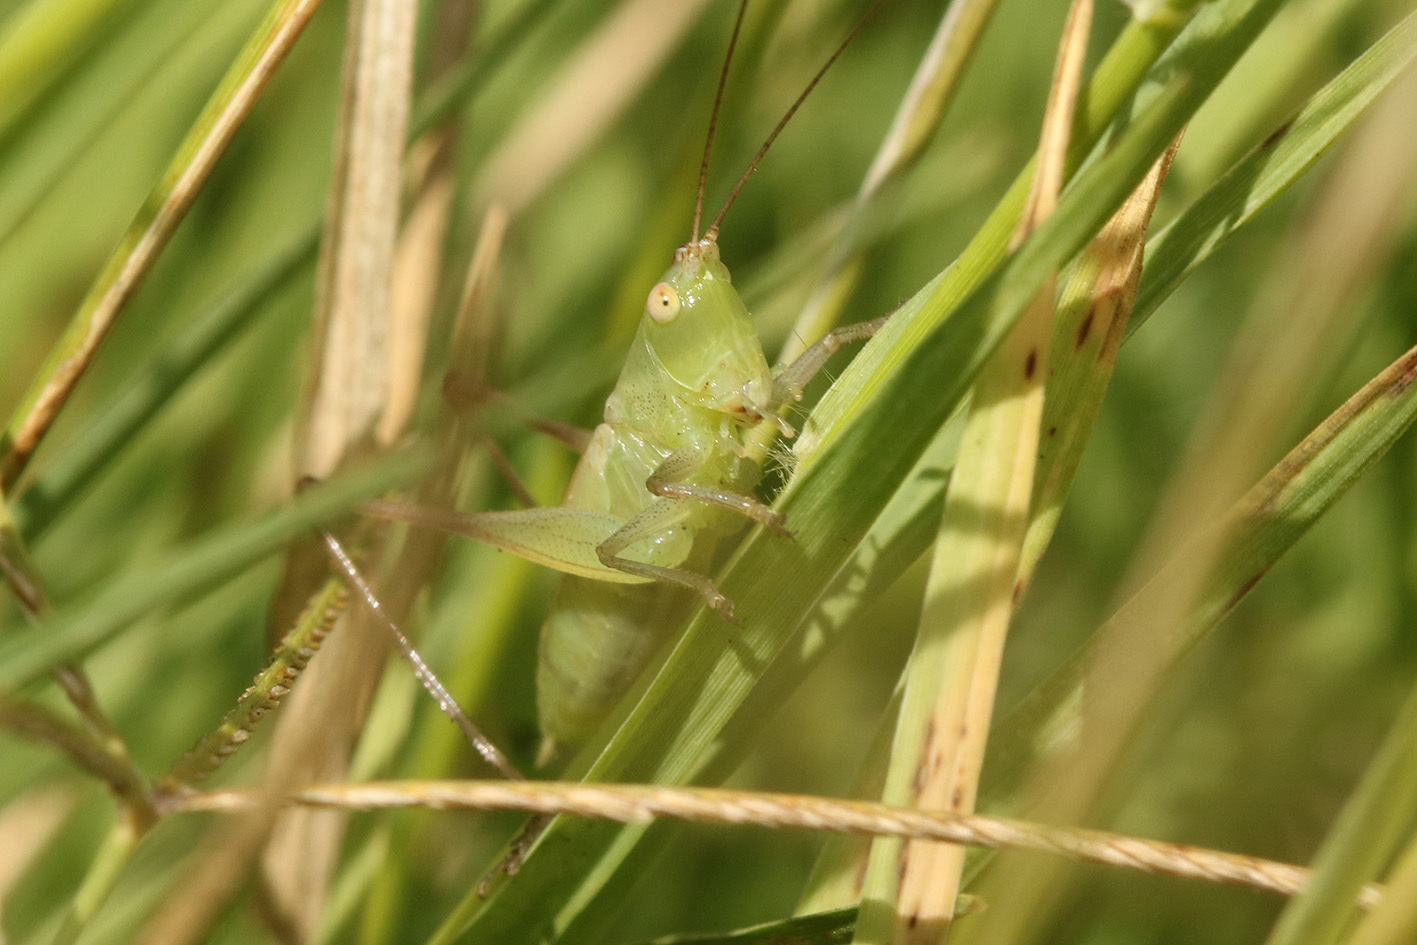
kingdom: Animalia
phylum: Arthropoda
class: Insecta
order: Orthoptera
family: Tettigoniidae
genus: Conocephalus
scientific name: Conocephalus longipes
